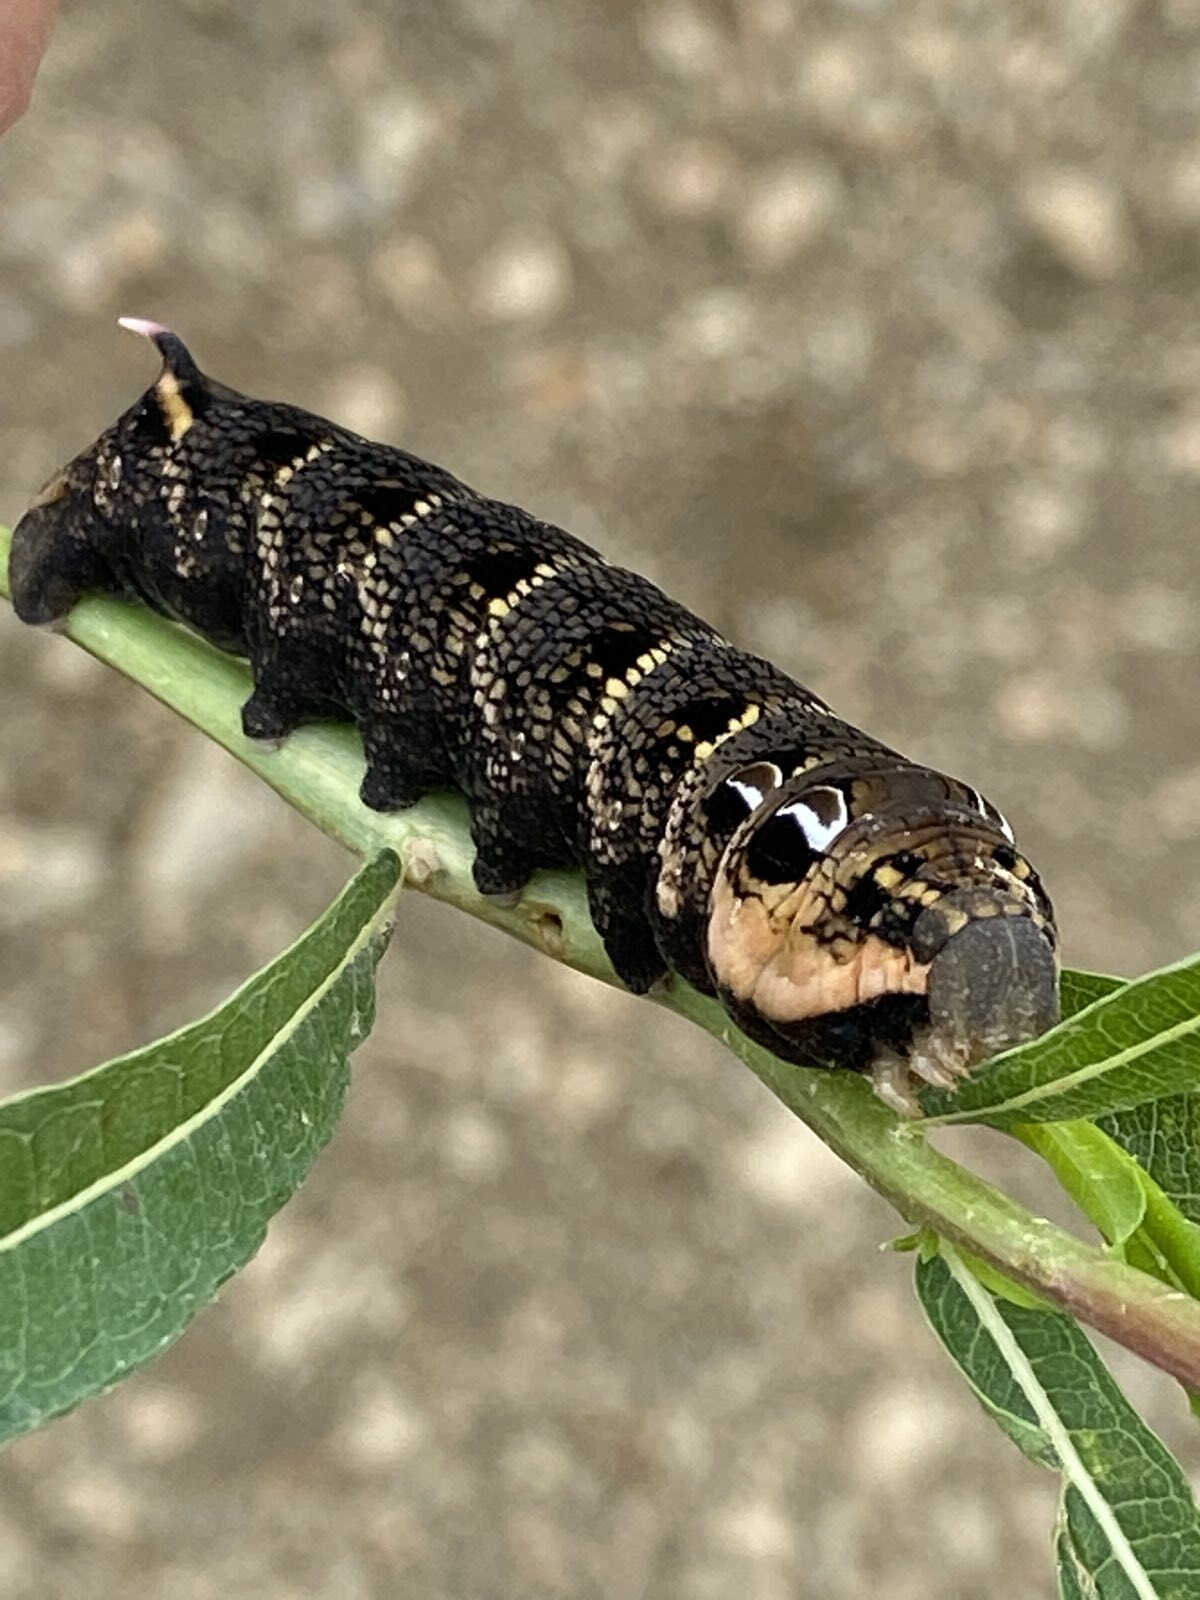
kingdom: Animalia
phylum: Arthropoda
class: Insecta
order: Lepidoptera
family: Sphingidae
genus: Deilephila
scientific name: Deilephila elpenor
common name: Elephant hawk-moth
